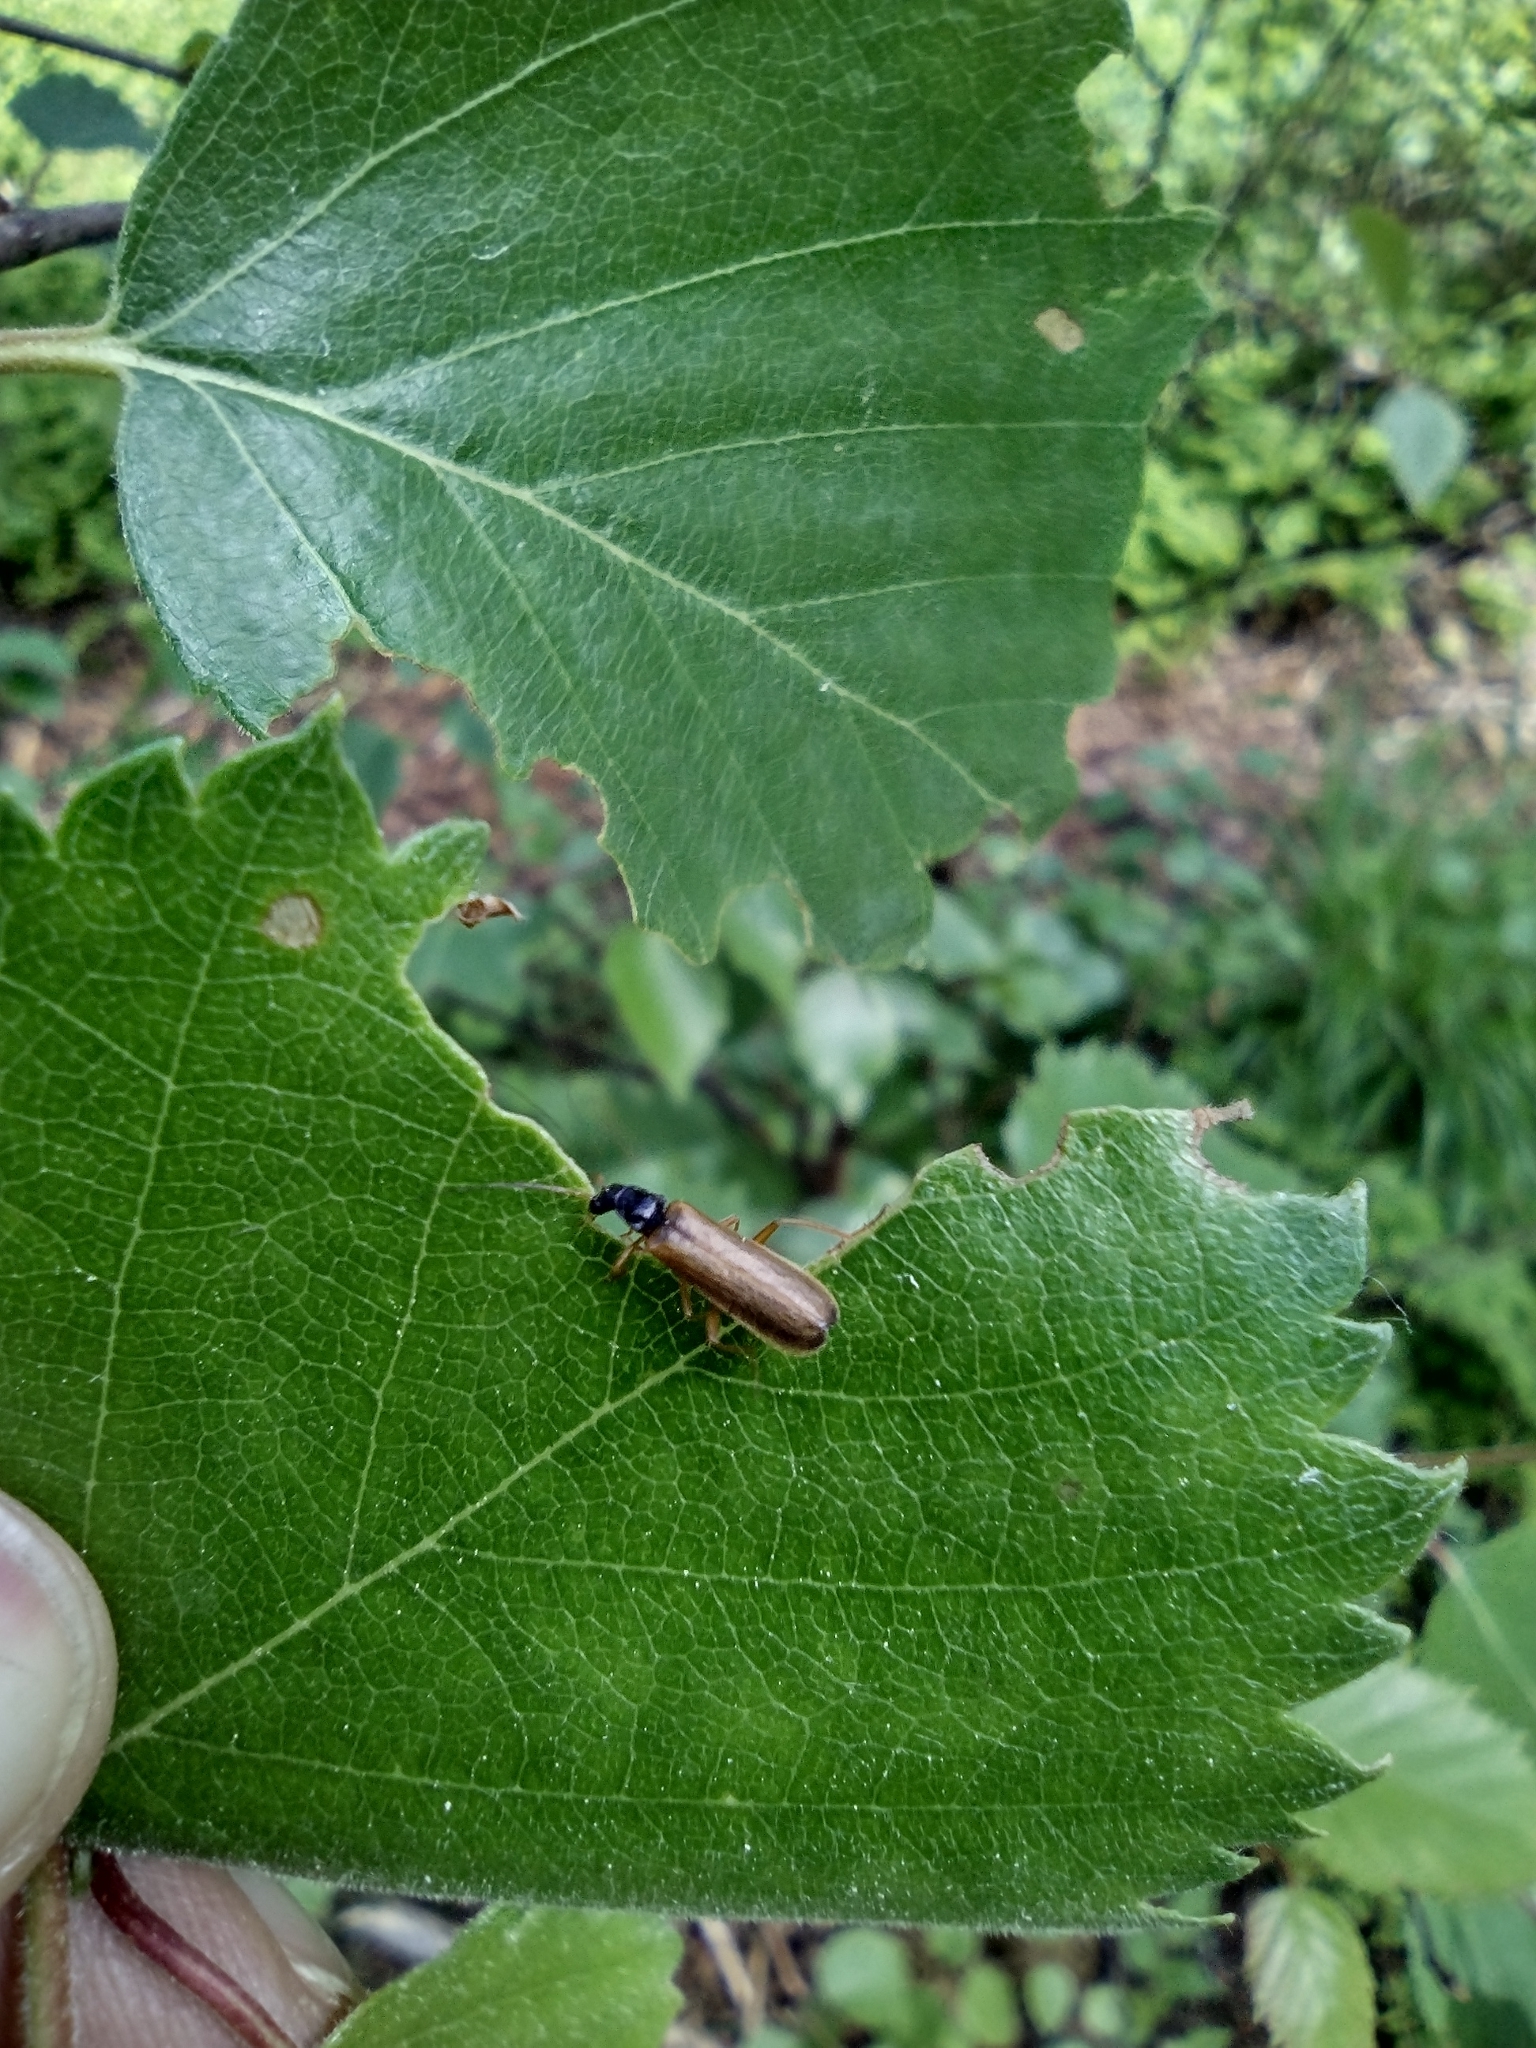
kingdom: Animalia
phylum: Arthropoda
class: Insecta
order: Coleoptera
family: Cantharidae
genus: Rhagonycha
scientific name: Rhagonycha lignosa
